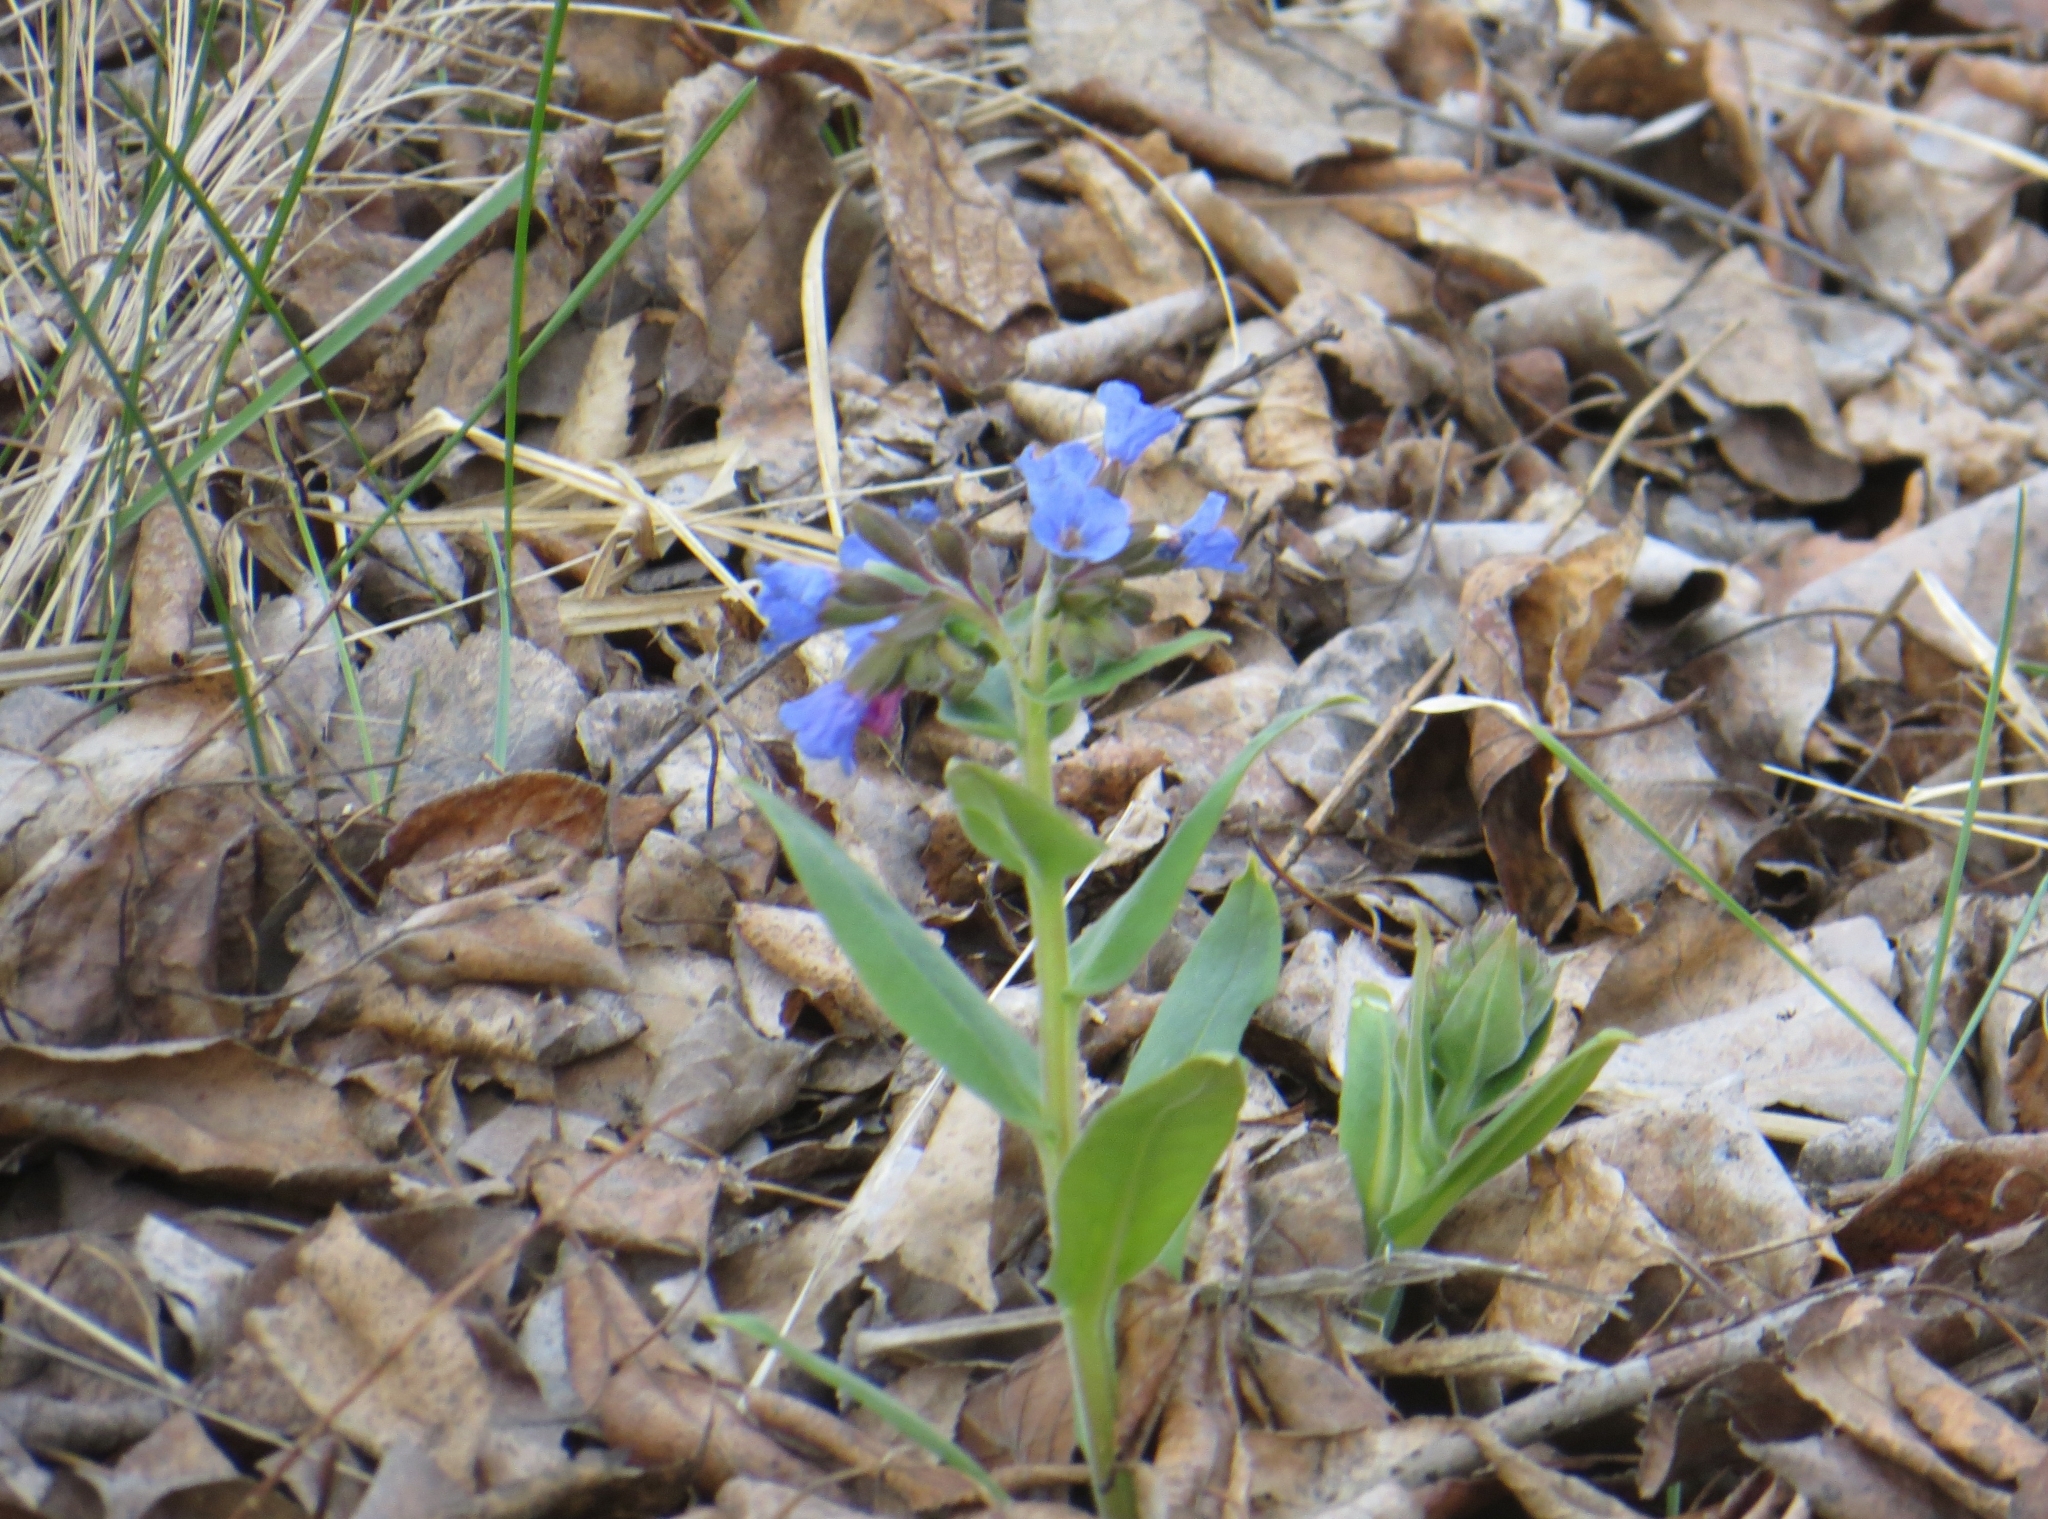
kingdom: Plantae
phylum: Tracheophyta
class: Magnoliopsida
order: Boraginales
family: Boraginaceae
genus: Pulmonaria
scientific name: Pulmonaria mollis
